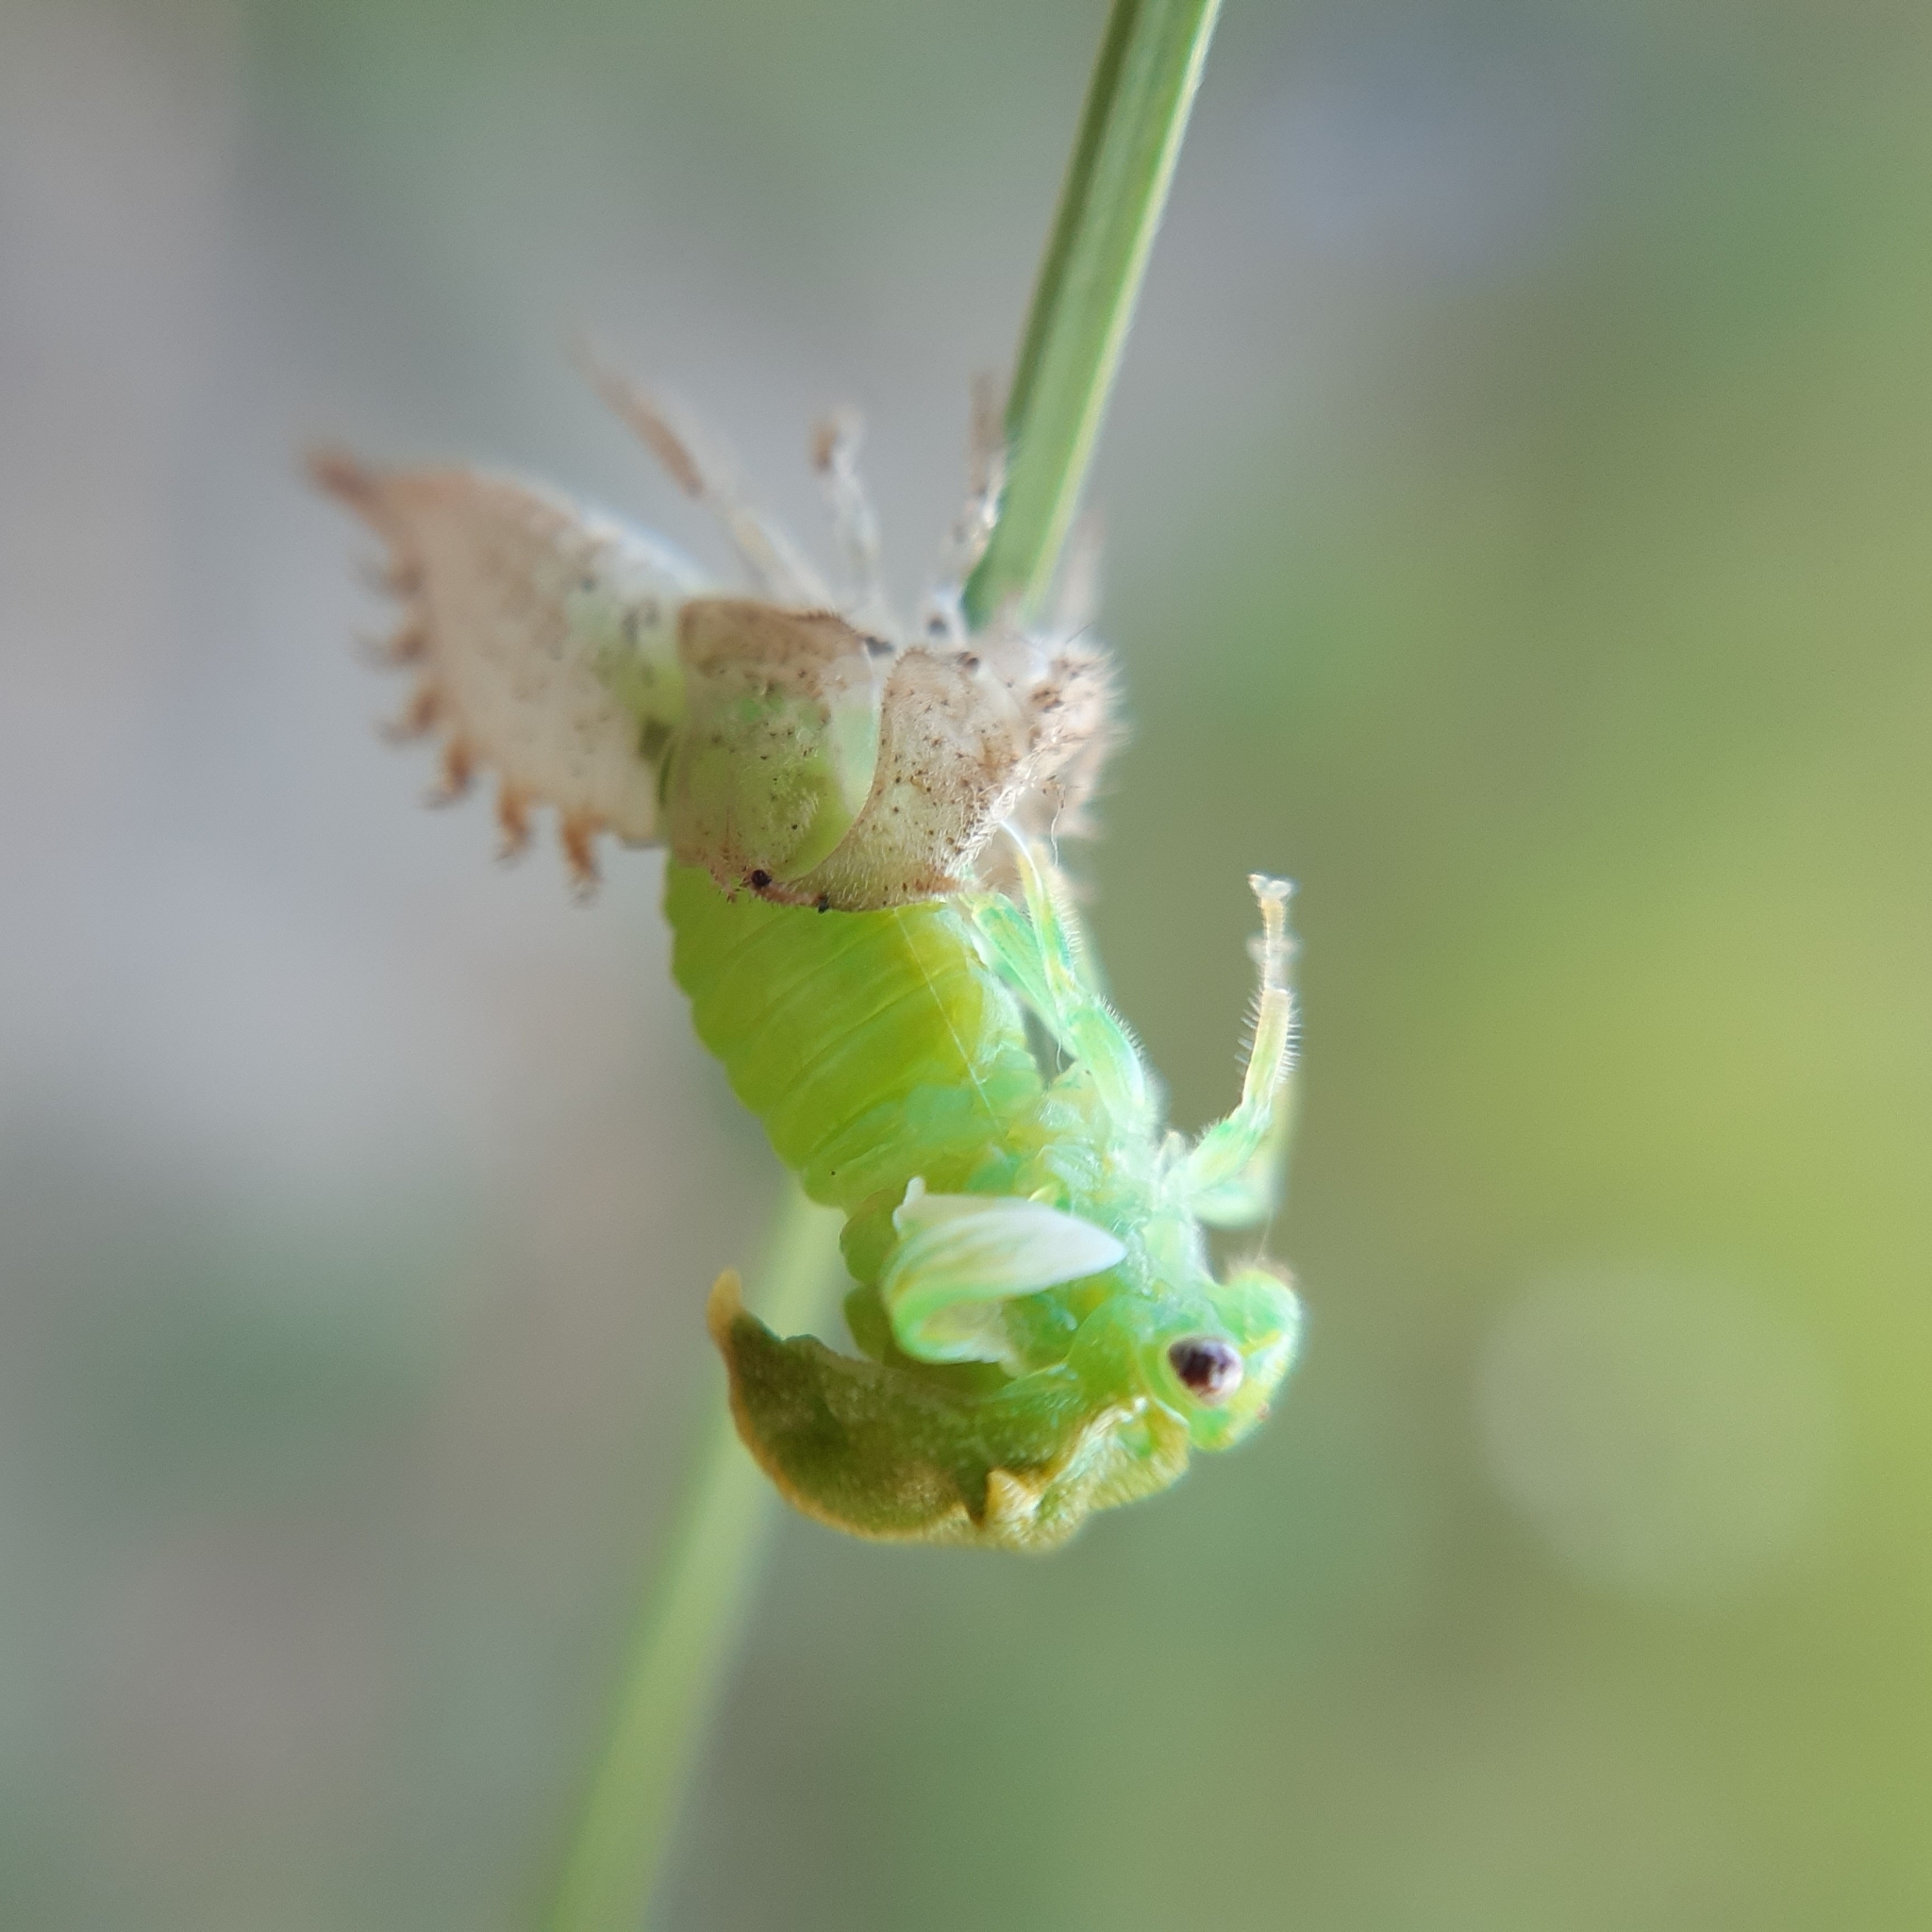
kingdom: Animalia
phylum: Arthropoda
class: Insecta
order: Hemiptera
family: Membracidae
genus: Stictocephala
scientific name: Stictocephala bisonia
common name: American buffalo treehopper
